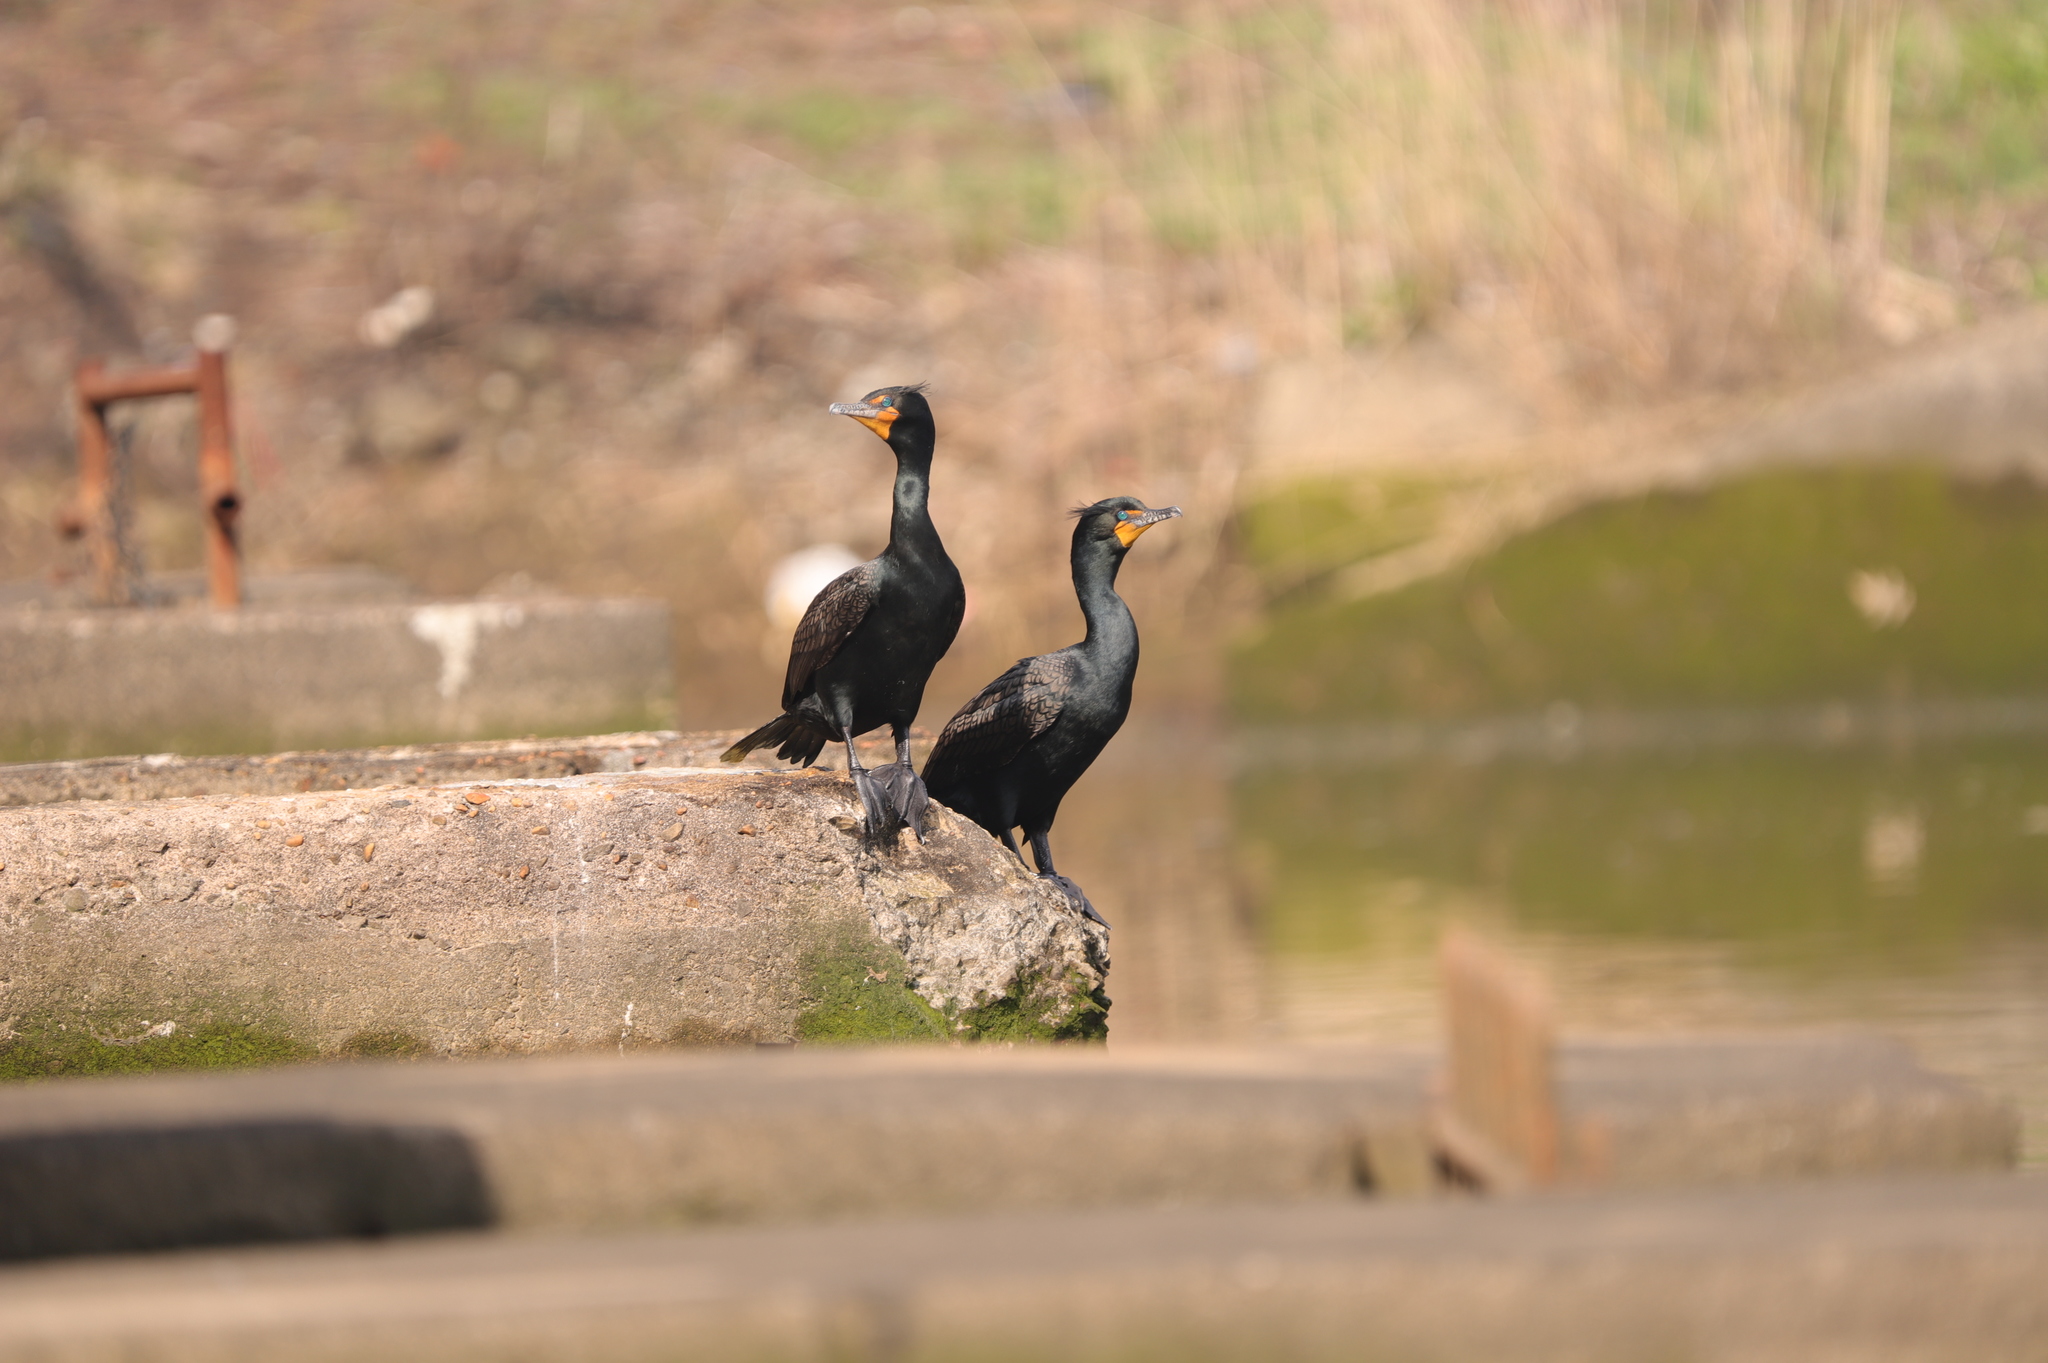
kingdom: Animalia
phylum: Chordata
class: Aves
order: Suliformes
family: Phalacrocoracidae
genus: Phalacrocorax
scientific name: Phalacrocorax auritus
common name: Double-crested cormorant
